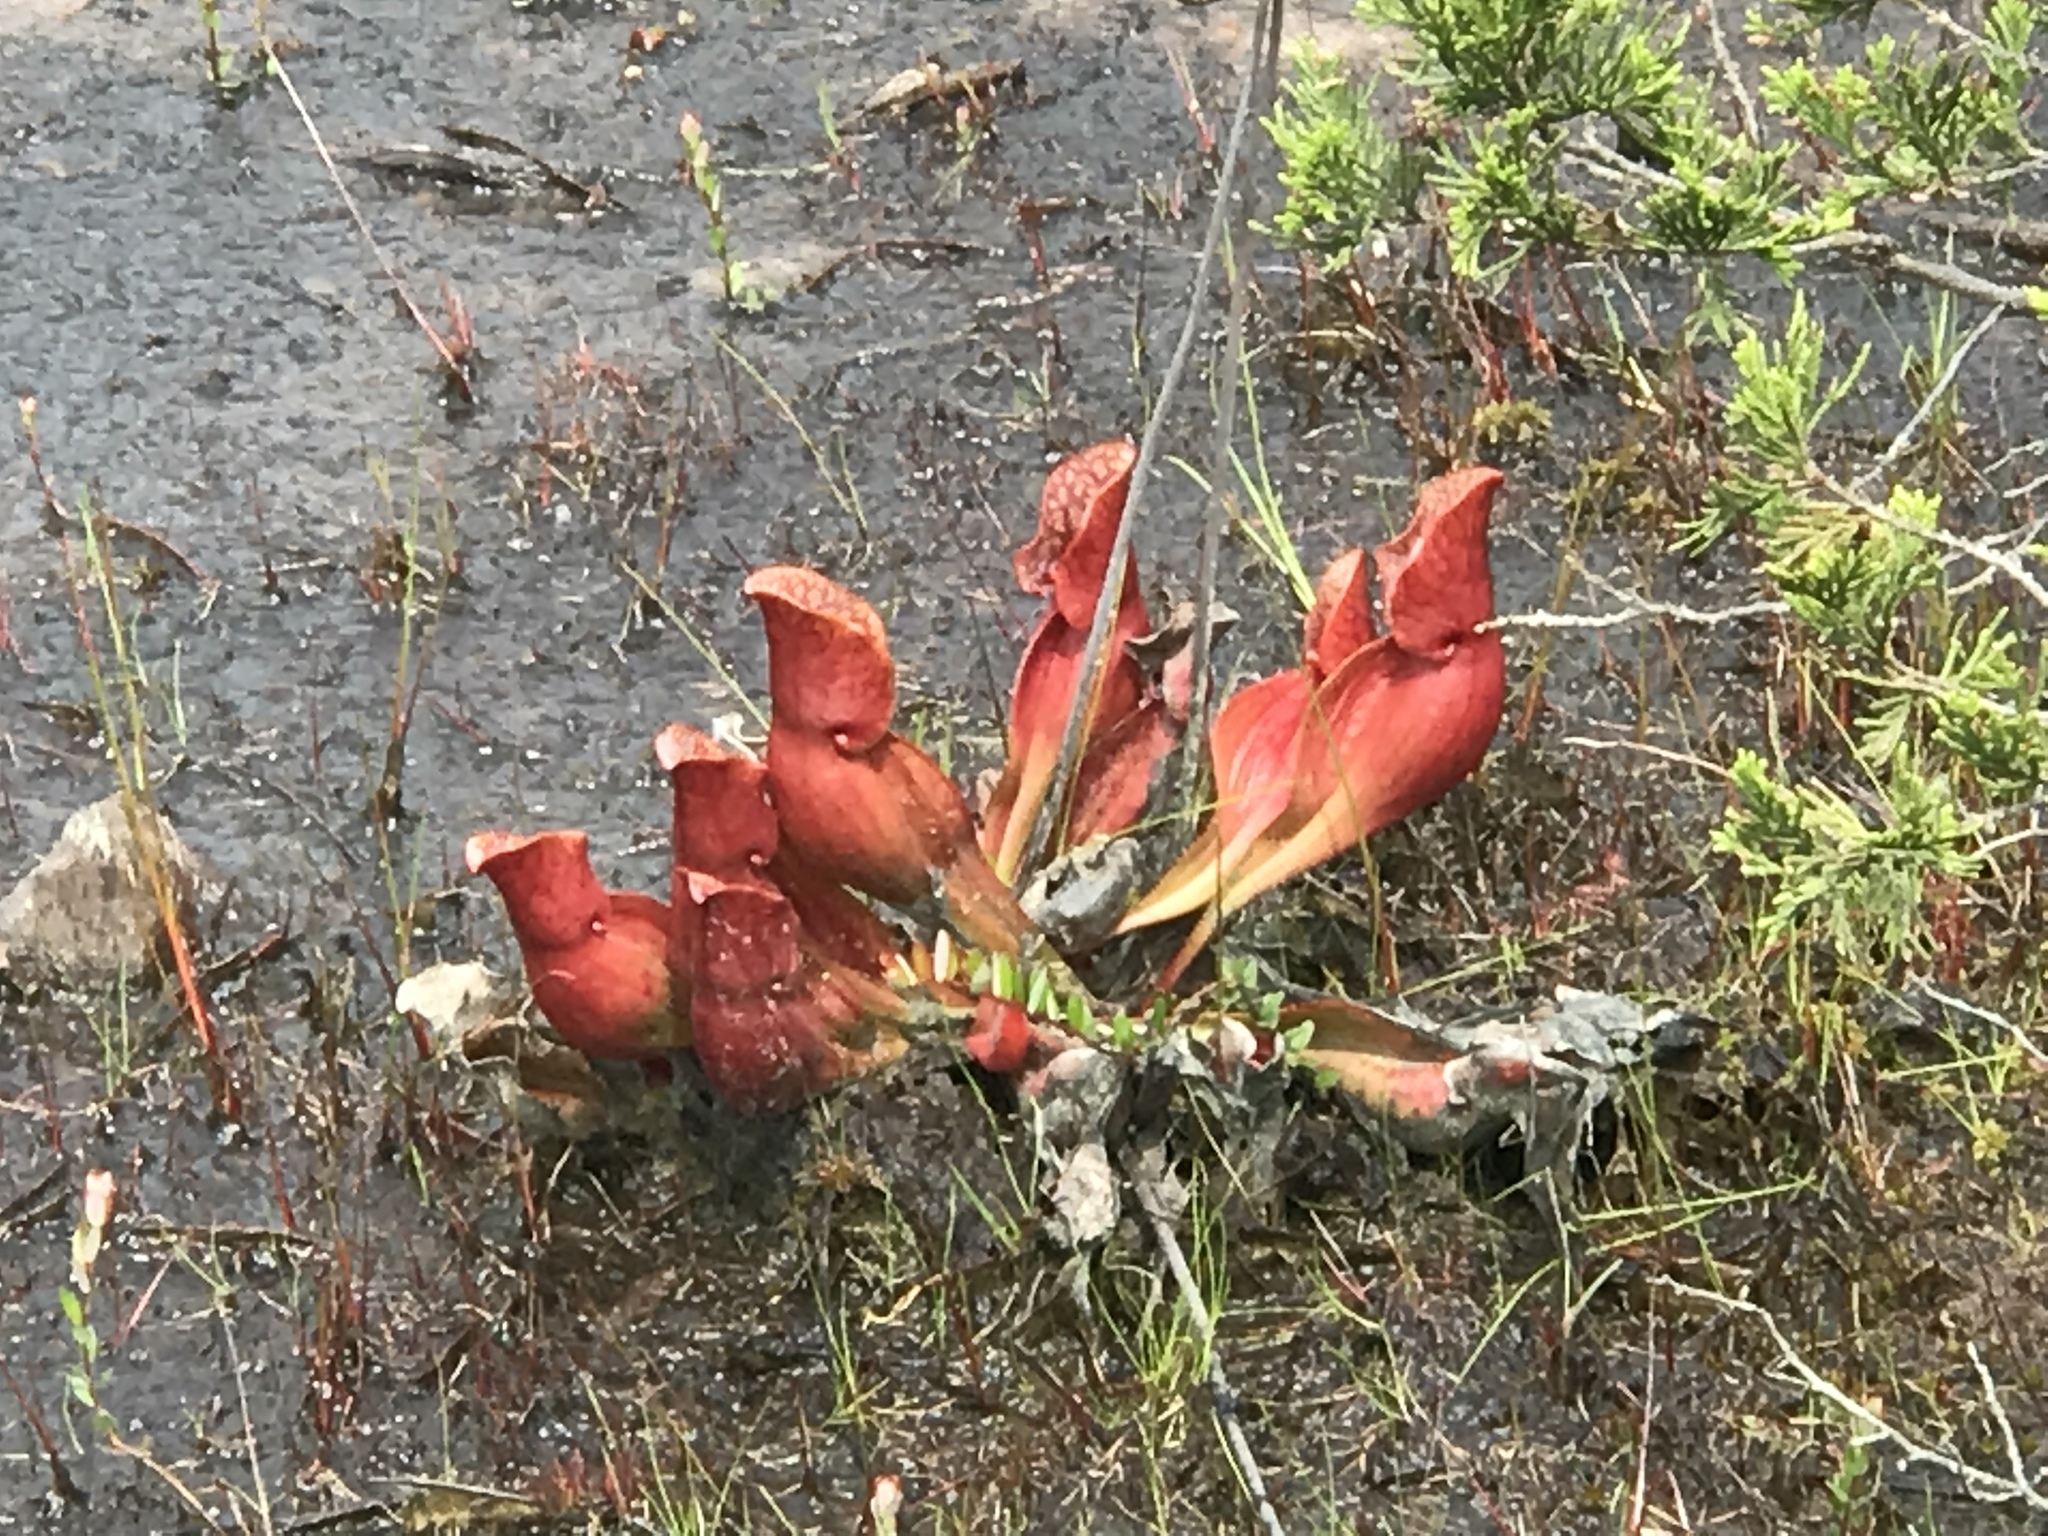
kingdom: Plantae
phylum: Tracheophyta
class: Magnoliopsida
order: Ericales
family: Sarraceniaceae
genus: Sarracenia
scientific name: Sarracenia purpurea
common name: Pitcherplant
